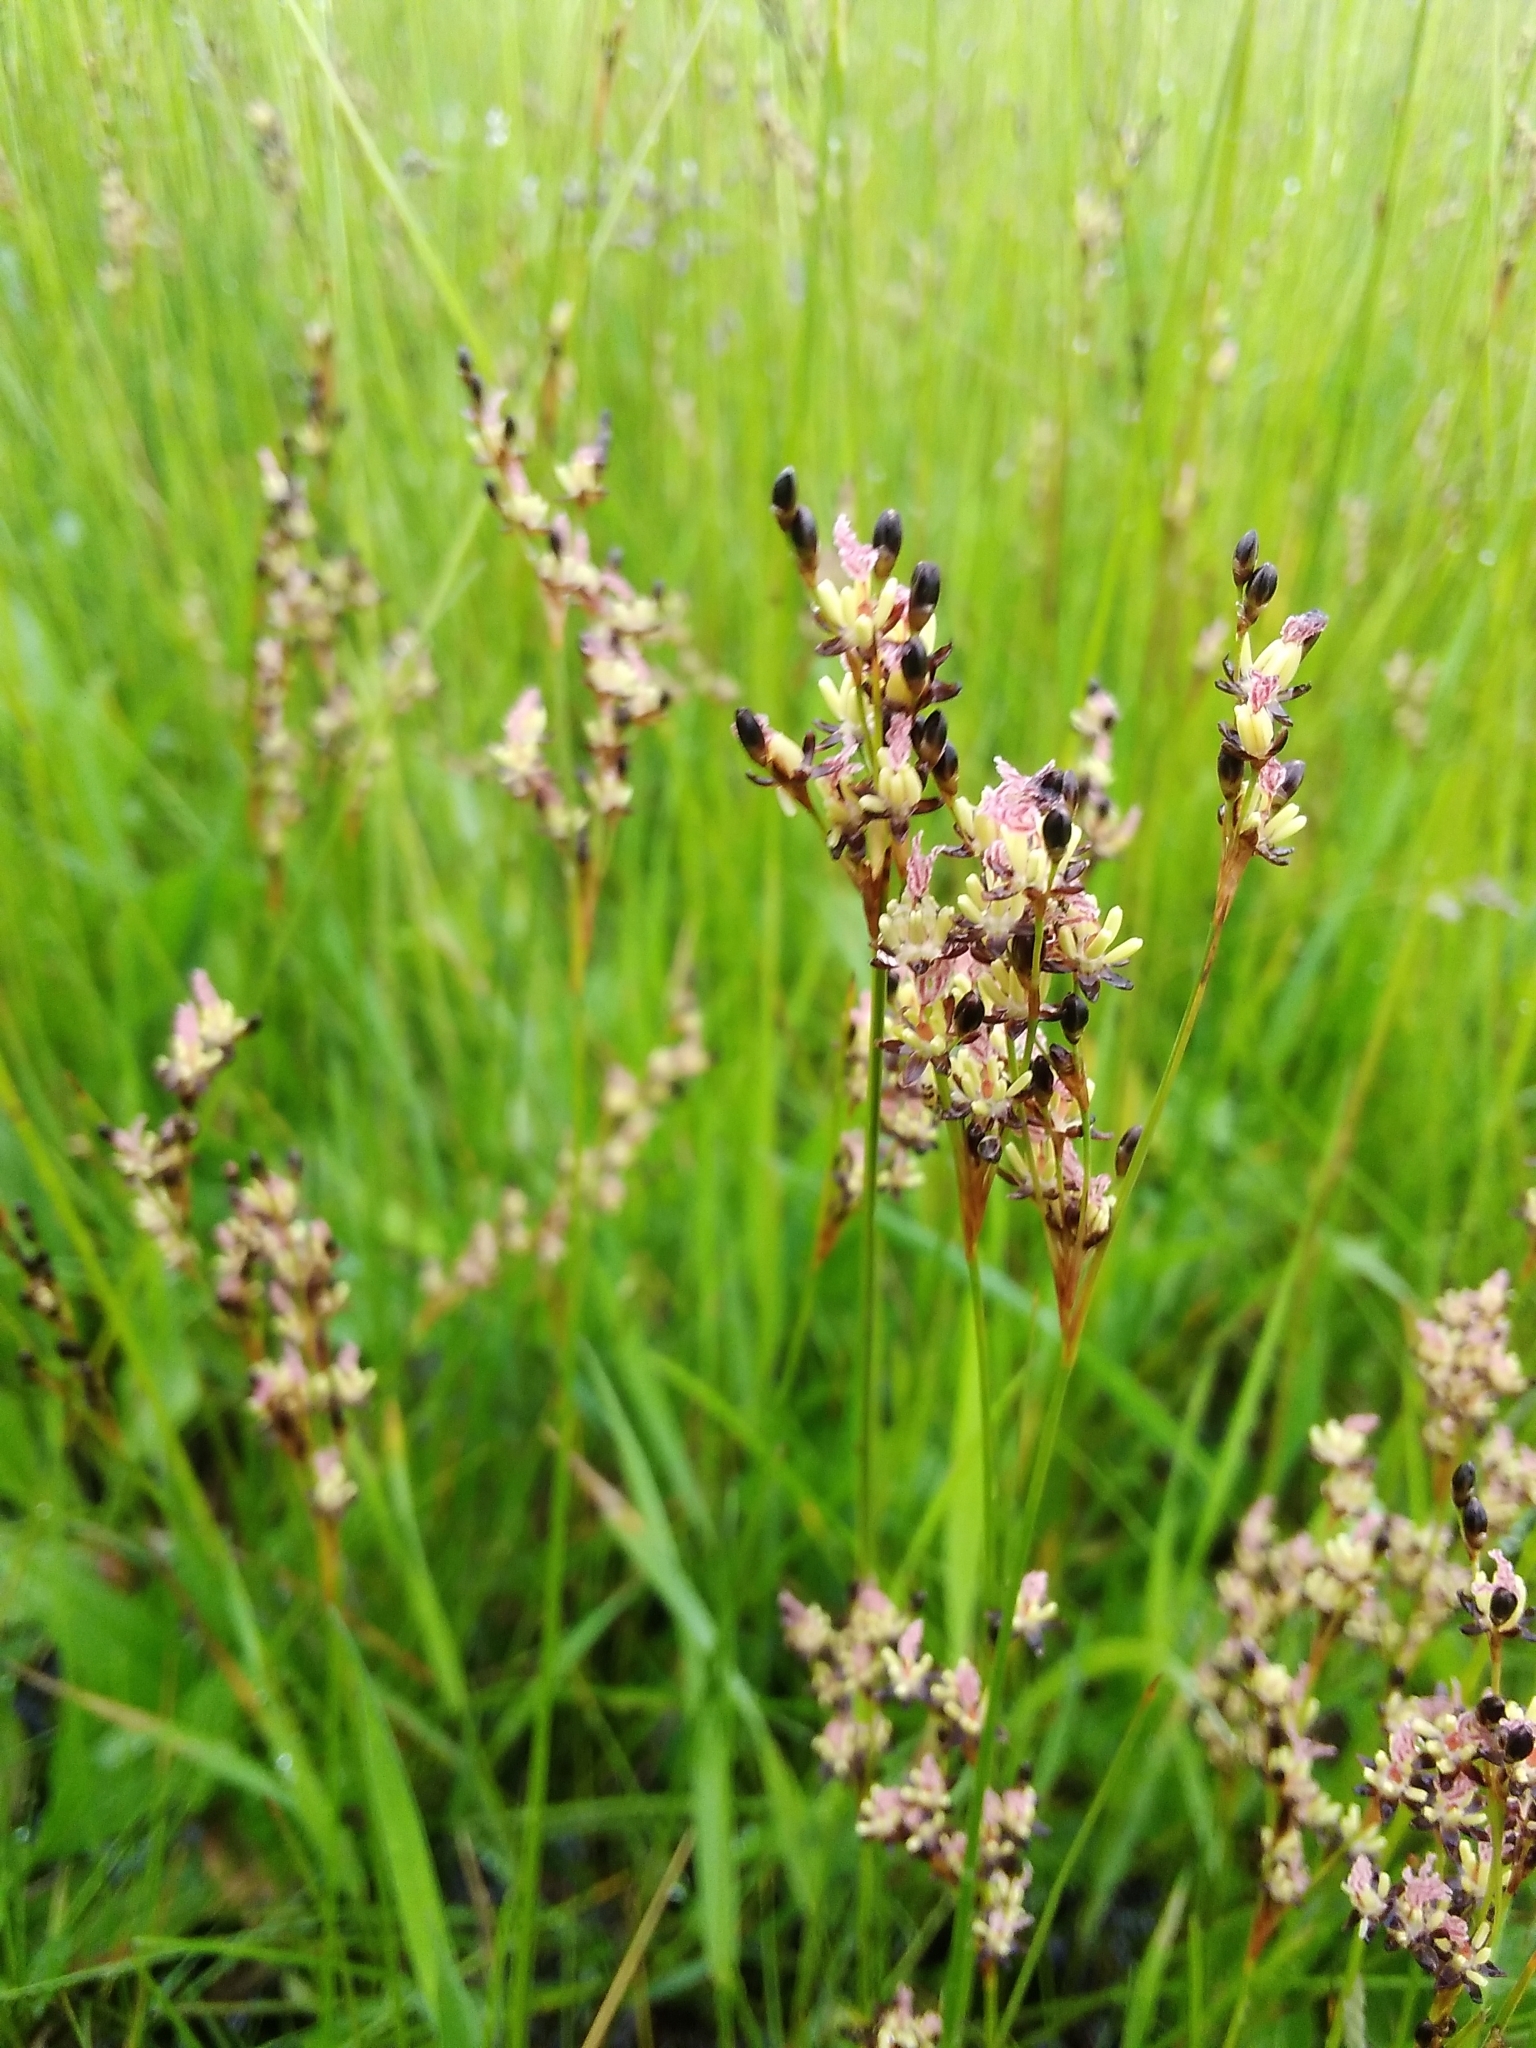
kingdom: Plantae
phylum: Tracheophyta
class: Liliopsida
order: Poales
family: Juncaceae
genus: Juncus
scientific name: Juncus gerardi
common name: Saltmarsh rush
